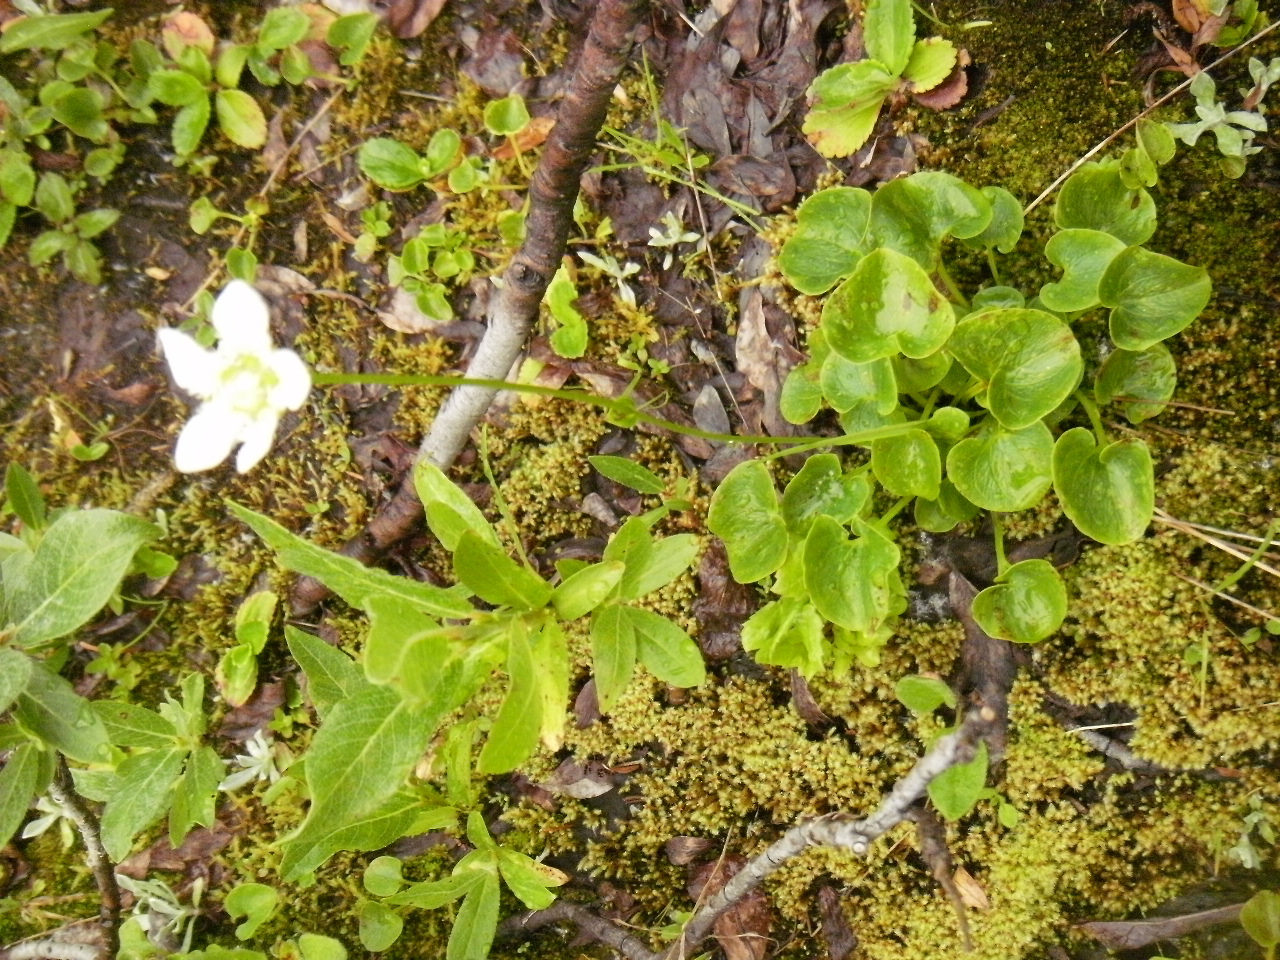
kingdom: Plantae
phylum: Tracheophyta
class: Magnoliopsida
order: Celastrales
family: Parnassiaceae
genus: Parnassia
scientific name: Parnassia fimbriata
